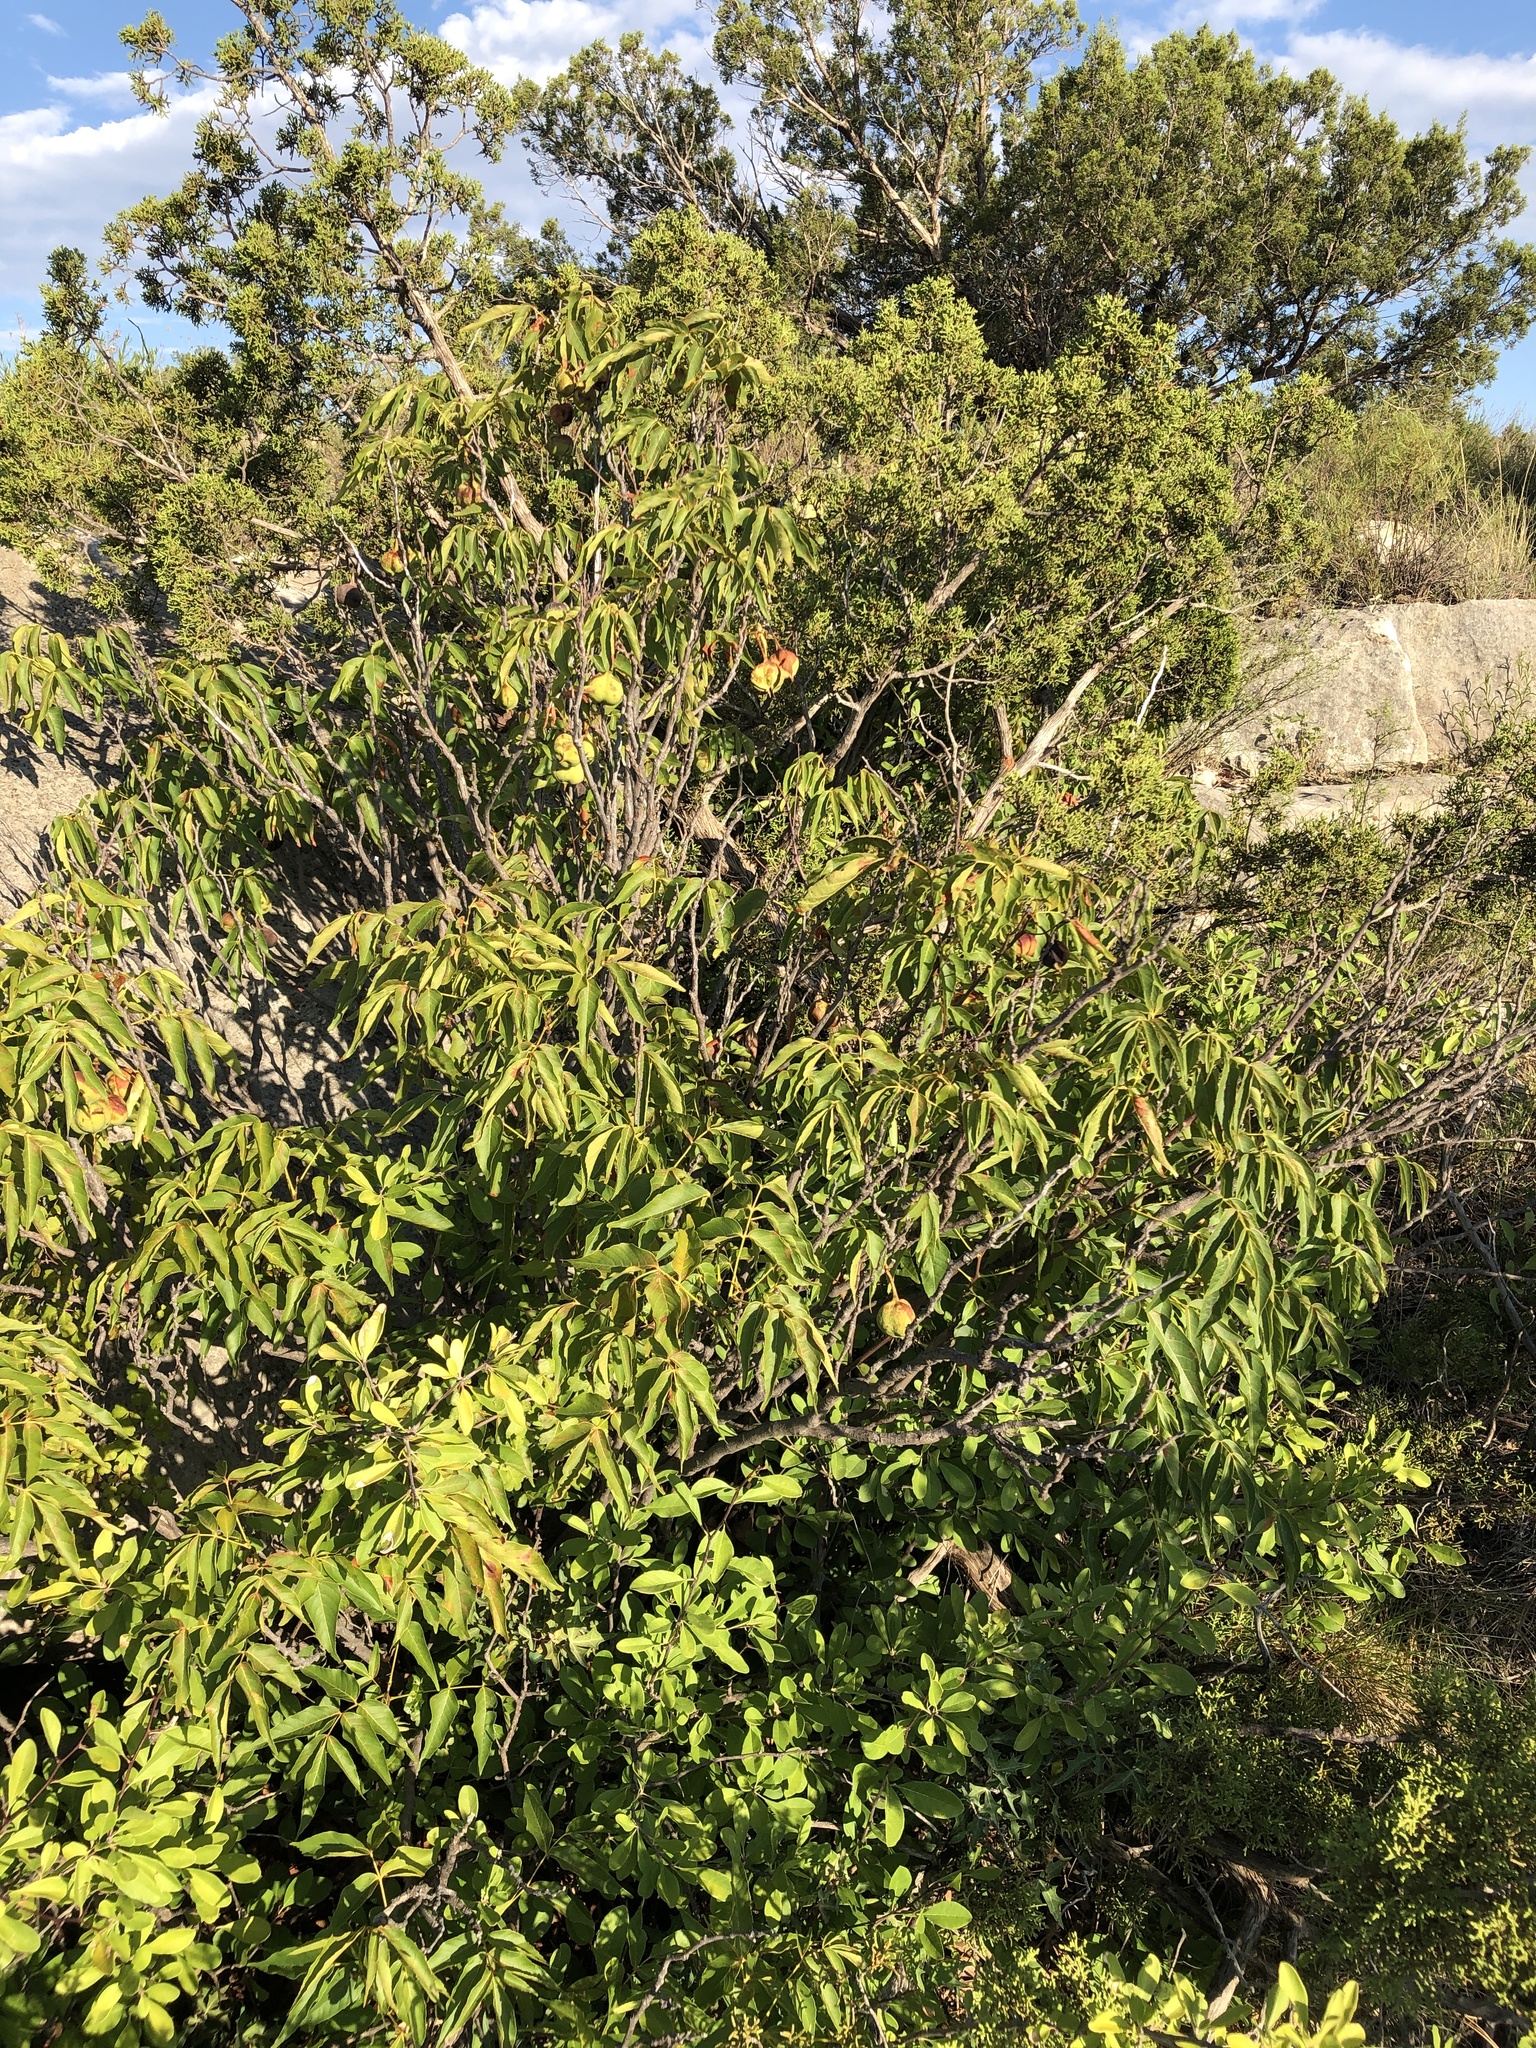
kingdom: Plantae
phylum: Tracheophyta
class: Magnoliopsida
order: Sapindales
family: Sapindaceae
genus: Ungnadia
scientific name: Ungnadia speciosa
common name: Texas-buckeye
